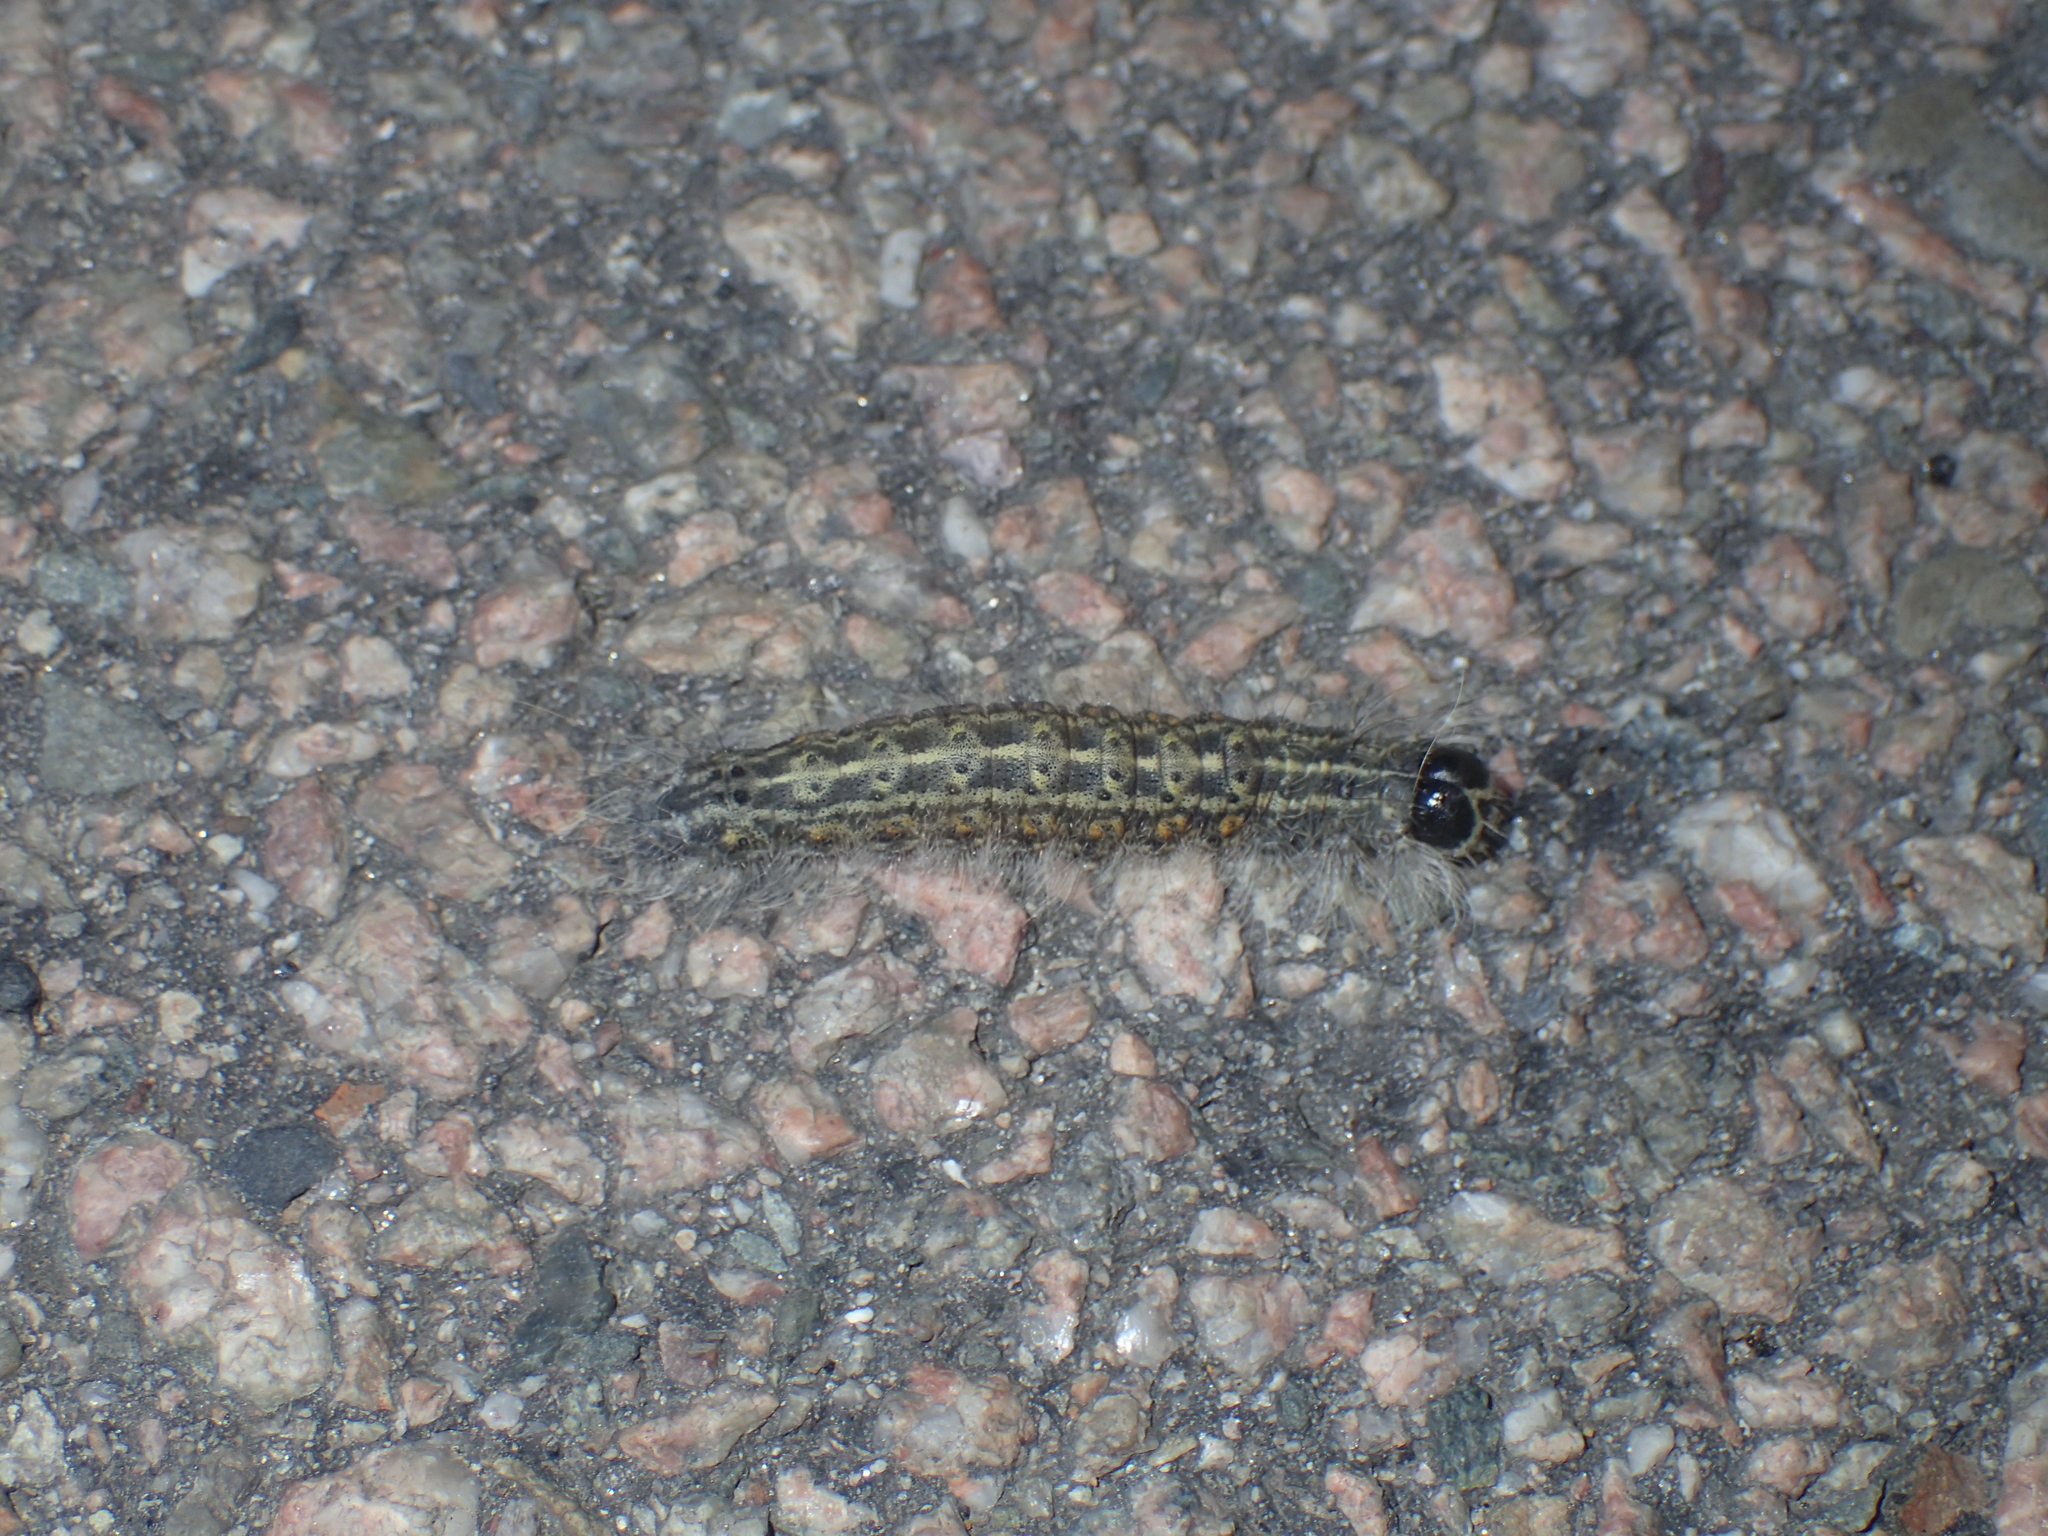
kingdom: Animalia
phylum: Arthropoda
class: Insecta
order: Lepidoptera
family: Noctuidae
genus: Acronicta
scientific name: Acronicta lobeliae
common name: Greater oak dagger
